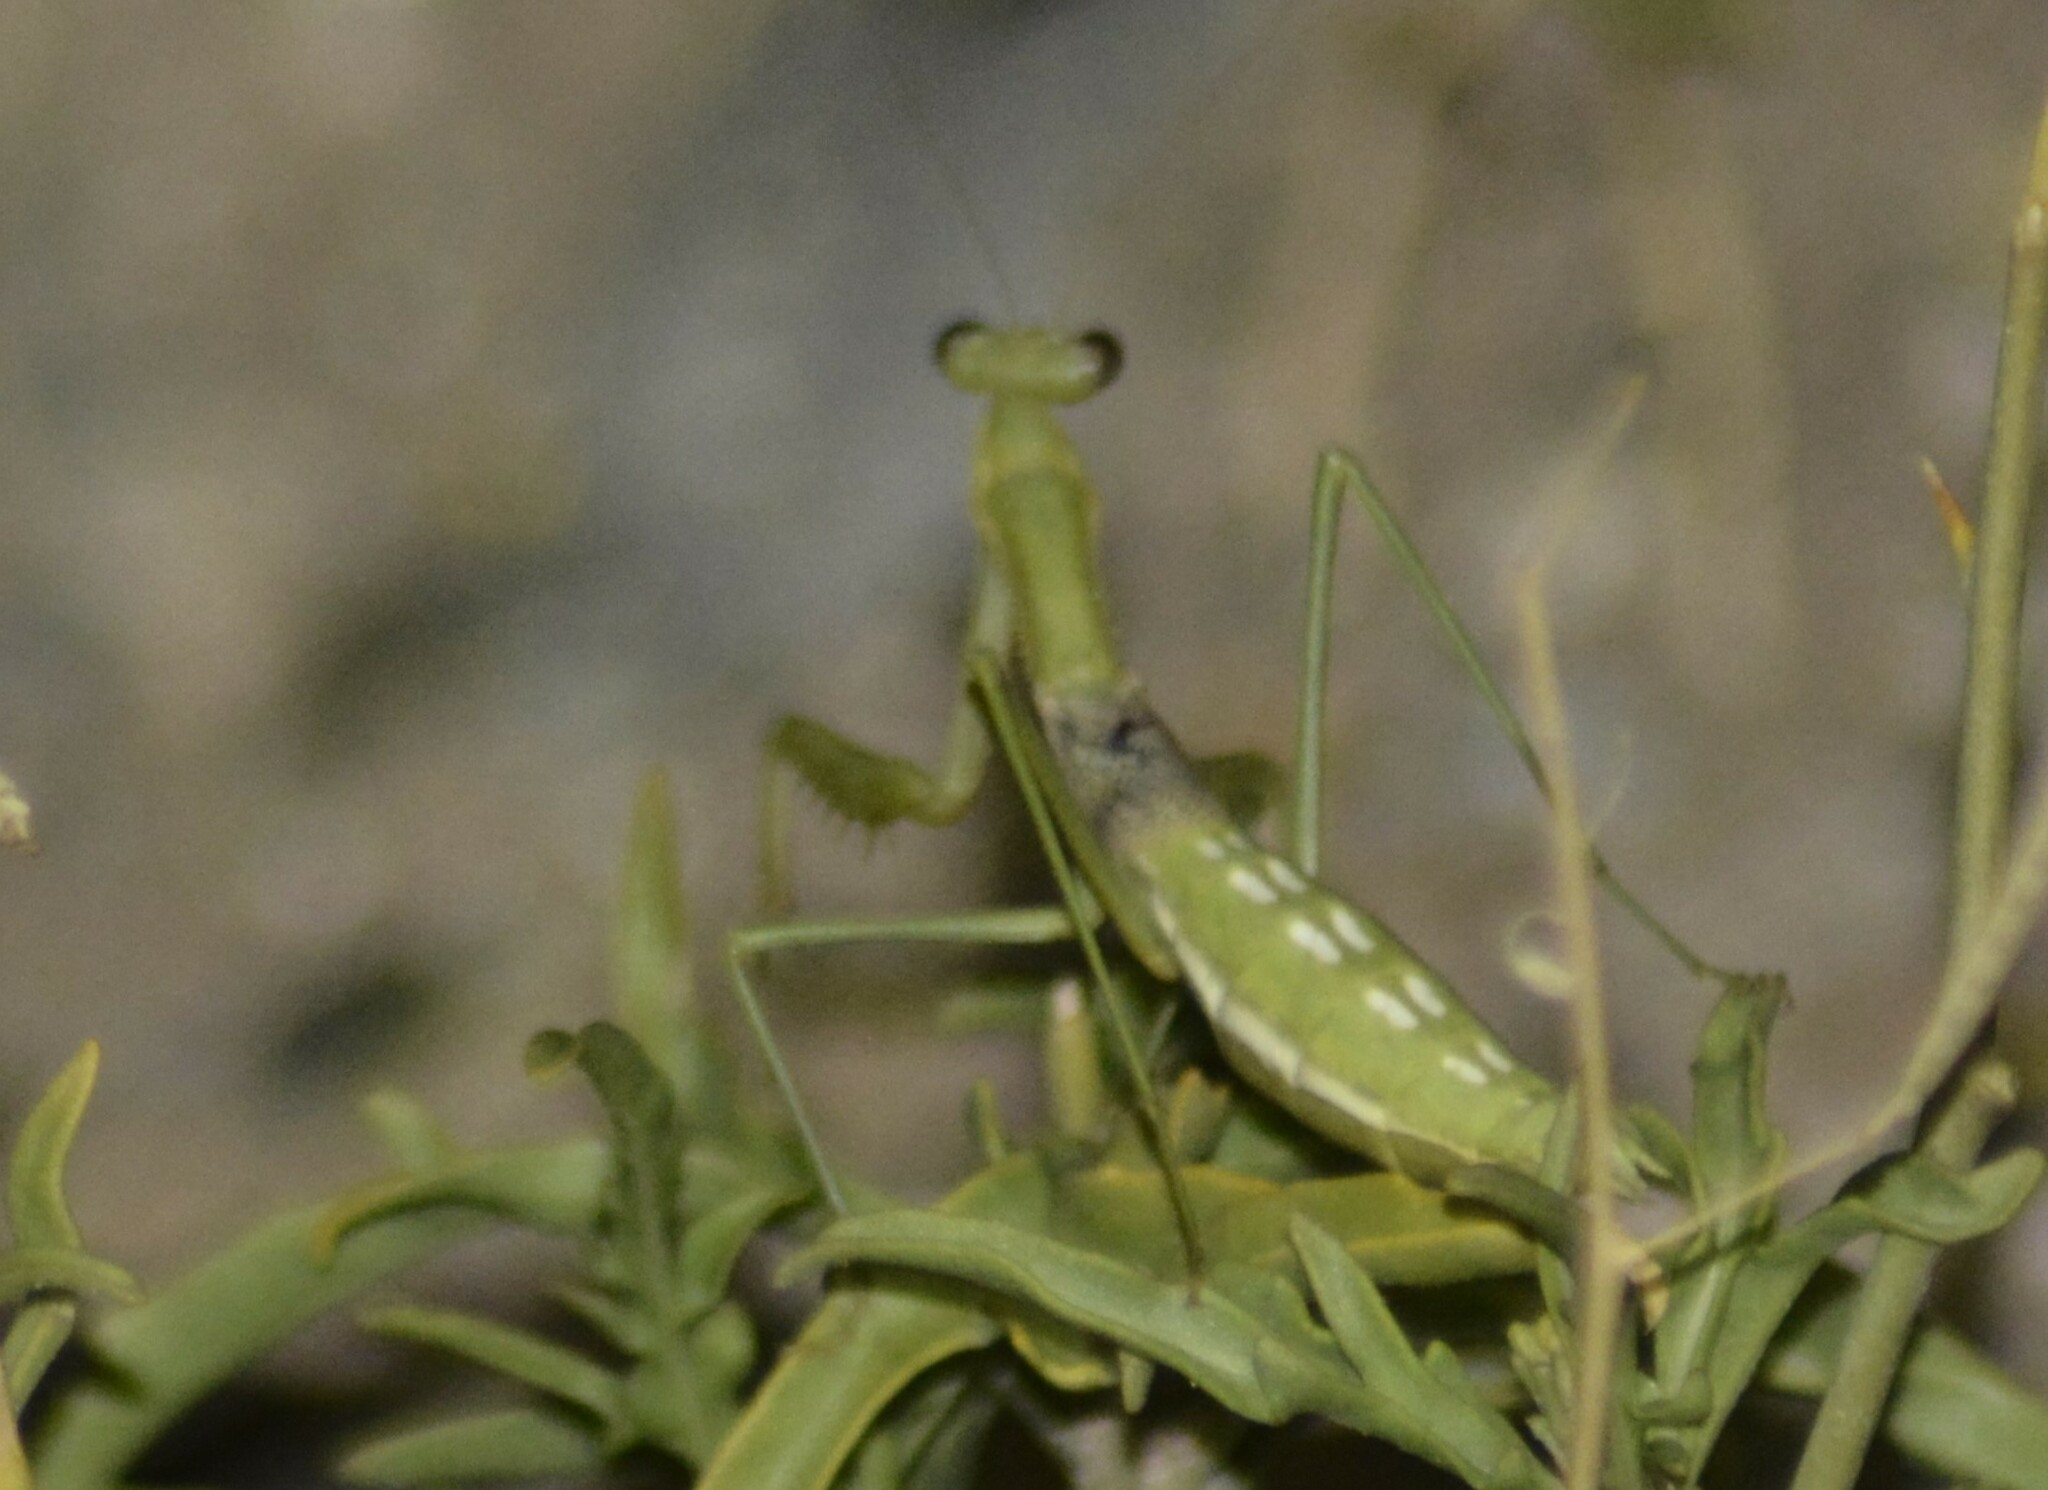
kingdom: Animalia
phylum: Arthropoda
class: Insecta
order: Mantodea
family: Coptopterygidae
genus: Coptopteryx
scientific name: Coptopteryx gayi
